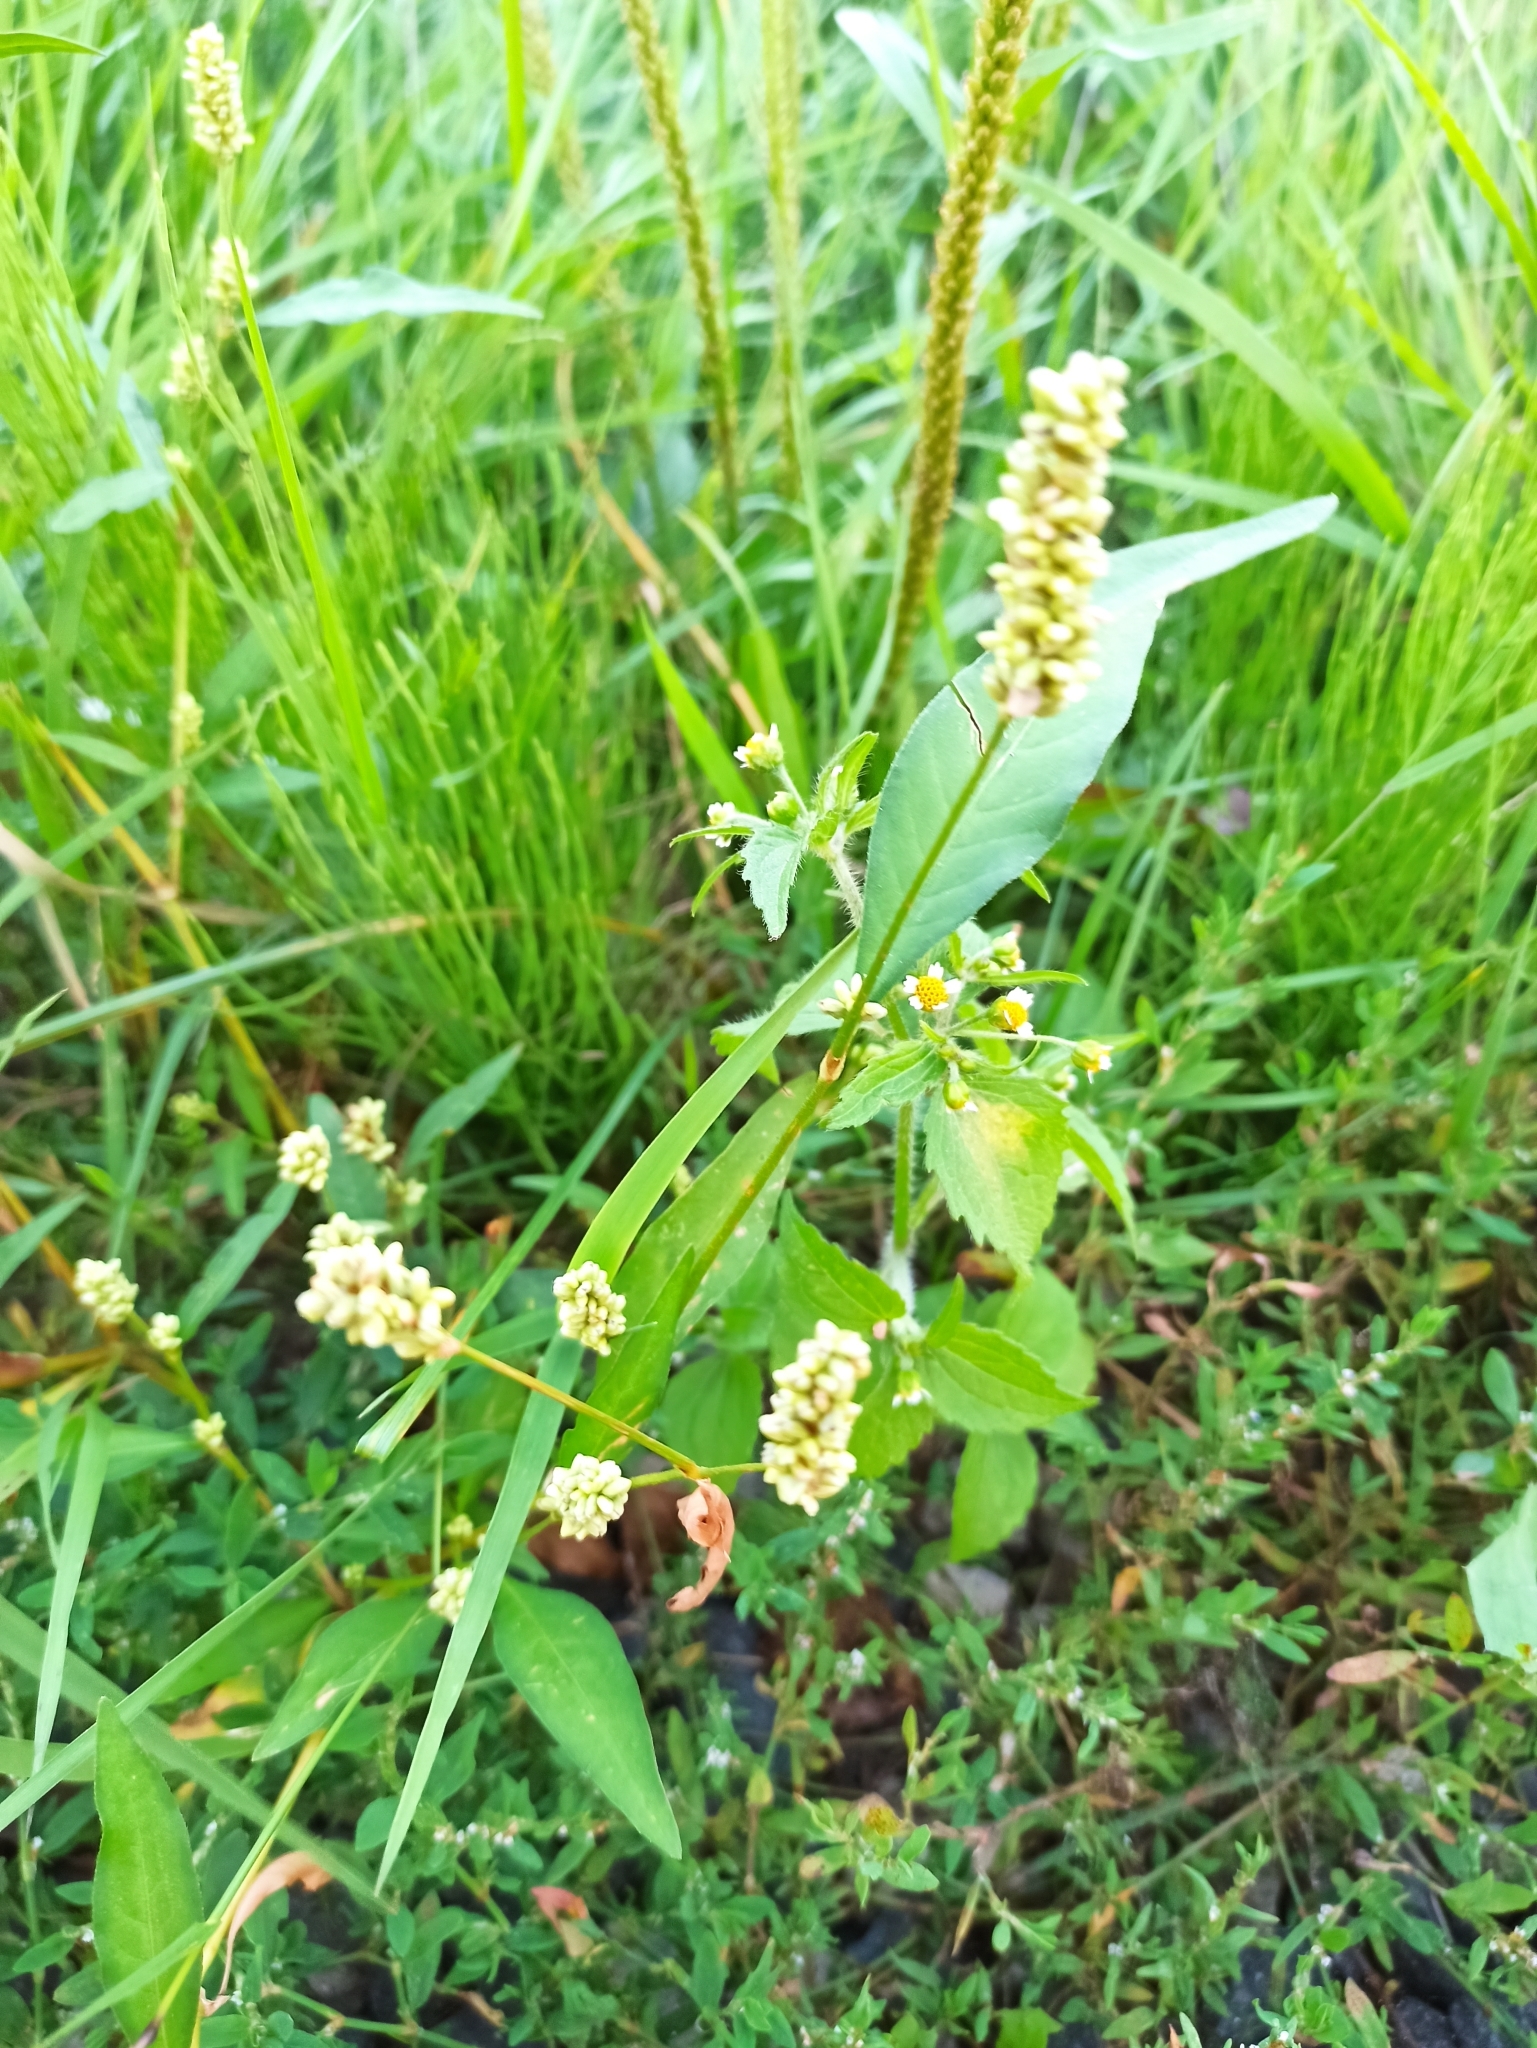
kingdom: Plantae
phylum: Tracheophyta
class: Magnoliopsida
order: Caryophyllales
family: Polygonaceae
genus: Persicaria
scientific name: Persicaria lapathifolia
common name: Curlytop knotweed
